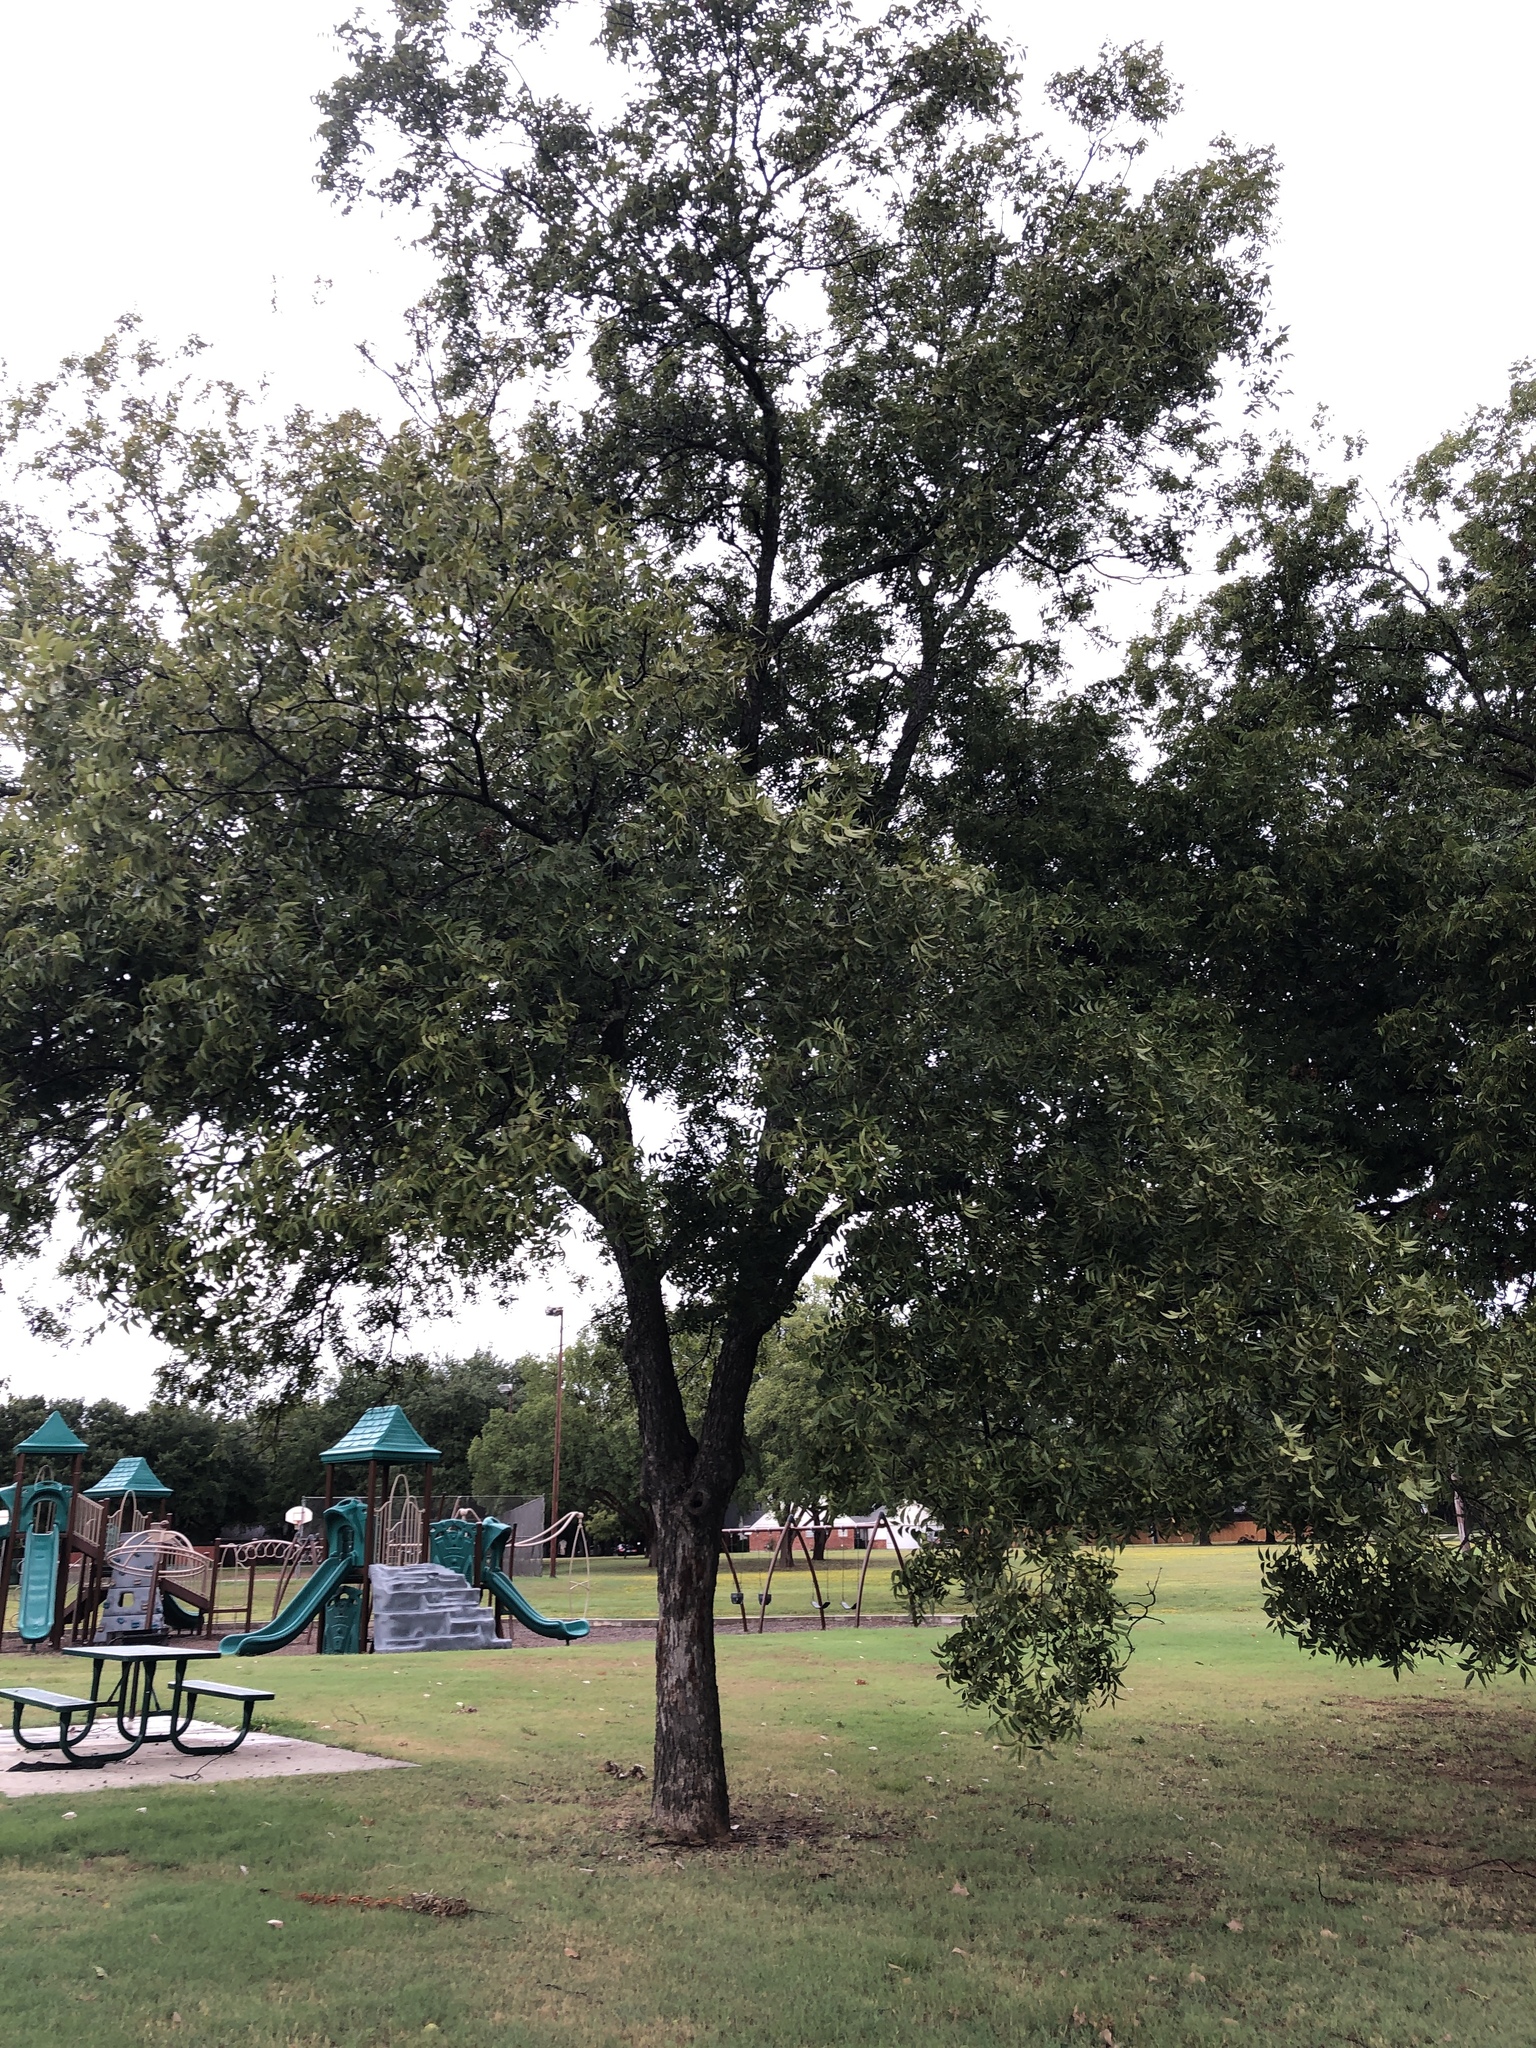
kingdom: Plantae
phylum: Tracheophyta
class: Magnoliopsida
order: Fagales
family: Juglandaceae
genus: Carya
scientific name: Carya illinoinensis
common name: Pecan
